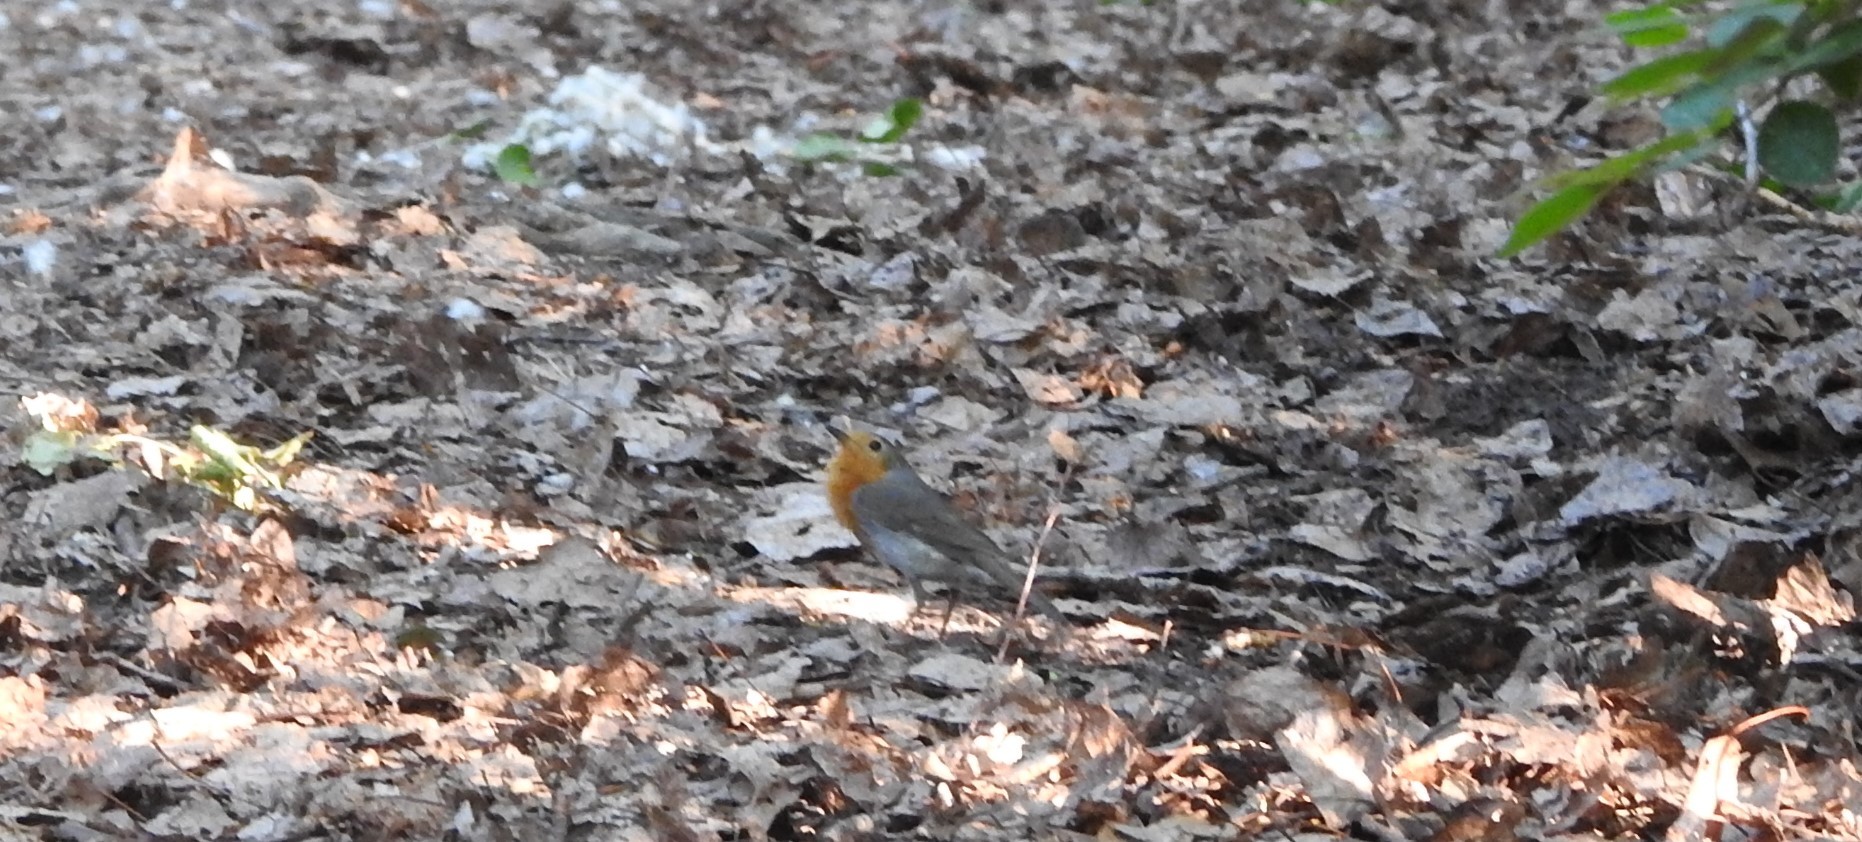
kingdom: Animalia
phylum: Chordata
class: Aves
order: Passeriformes
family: Muscicapidae
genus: Erithacus
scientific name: Erithacus rubecula
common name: European robin
